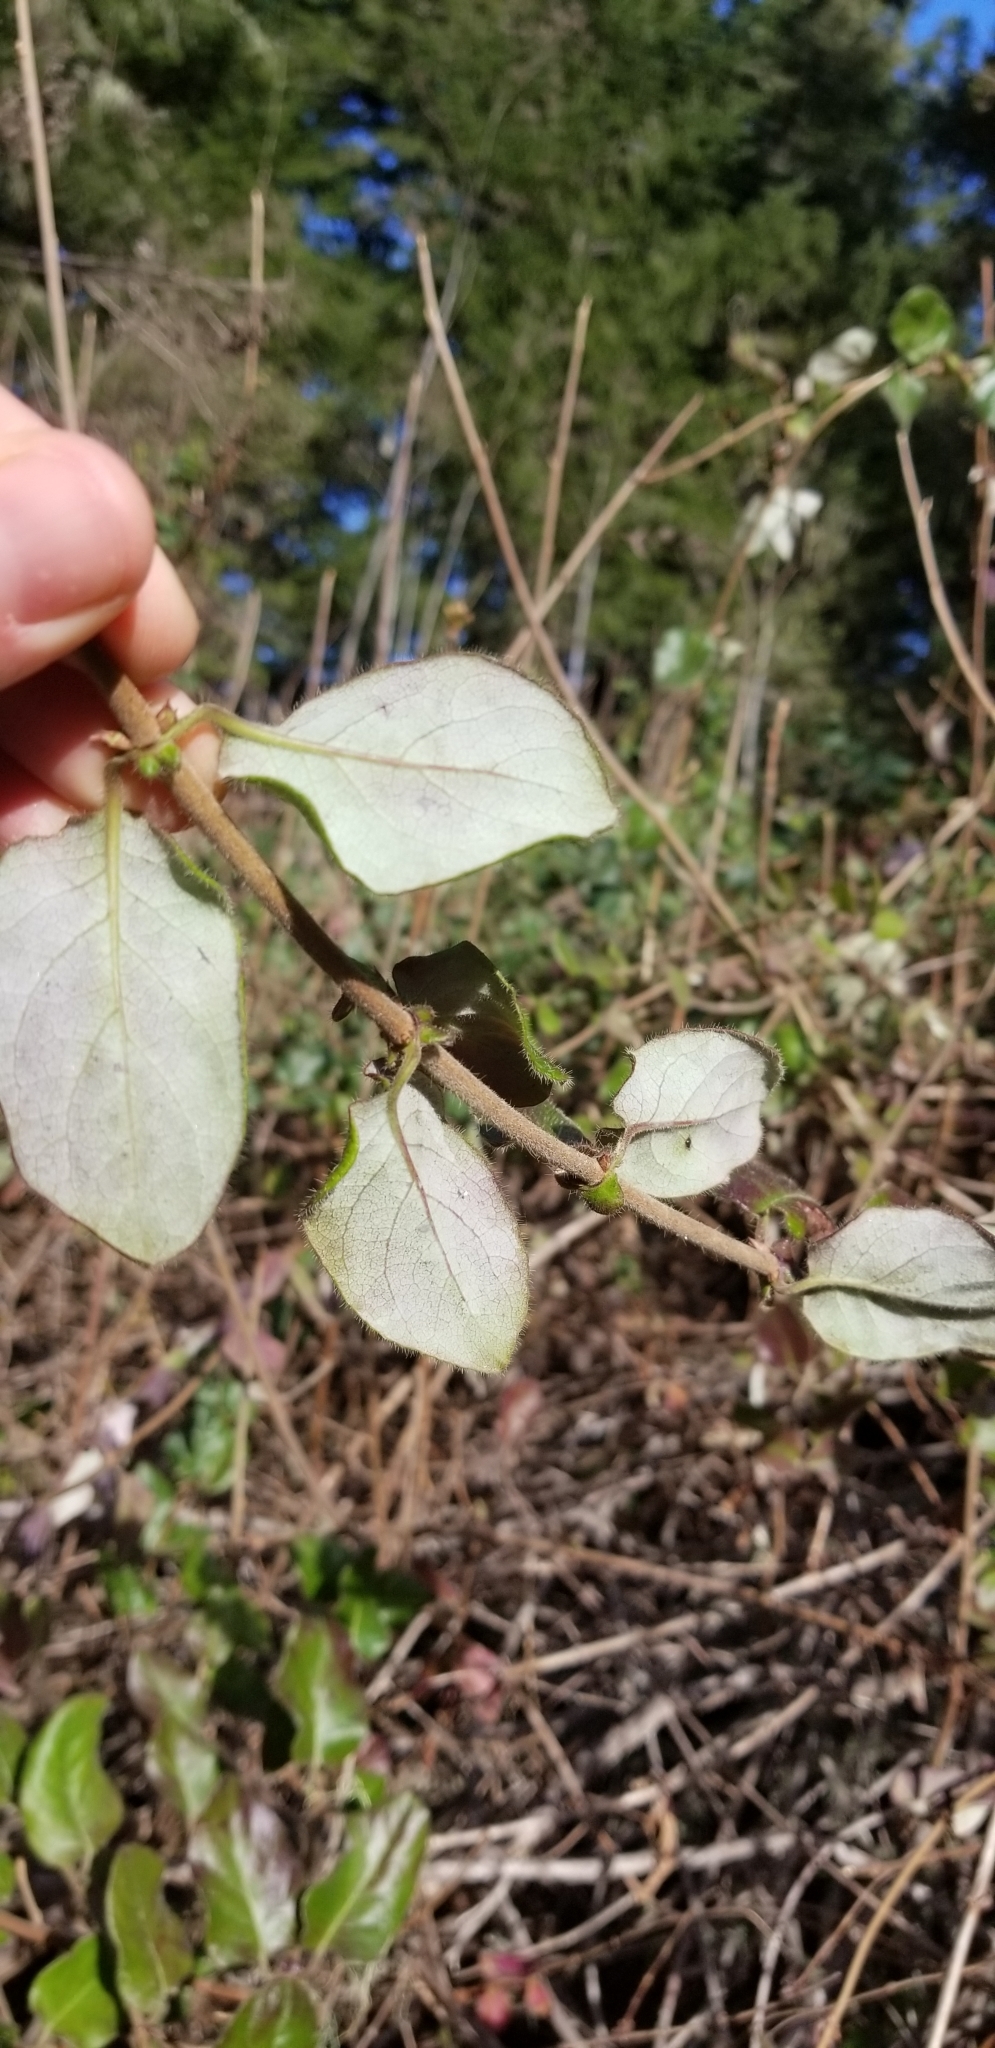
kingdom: Plantae
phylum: Tracheophyta
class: Magnoliopsida
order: Dipsacales
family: Caprifoliaceae
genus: Lonicera
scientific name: Lonicera hispidula
